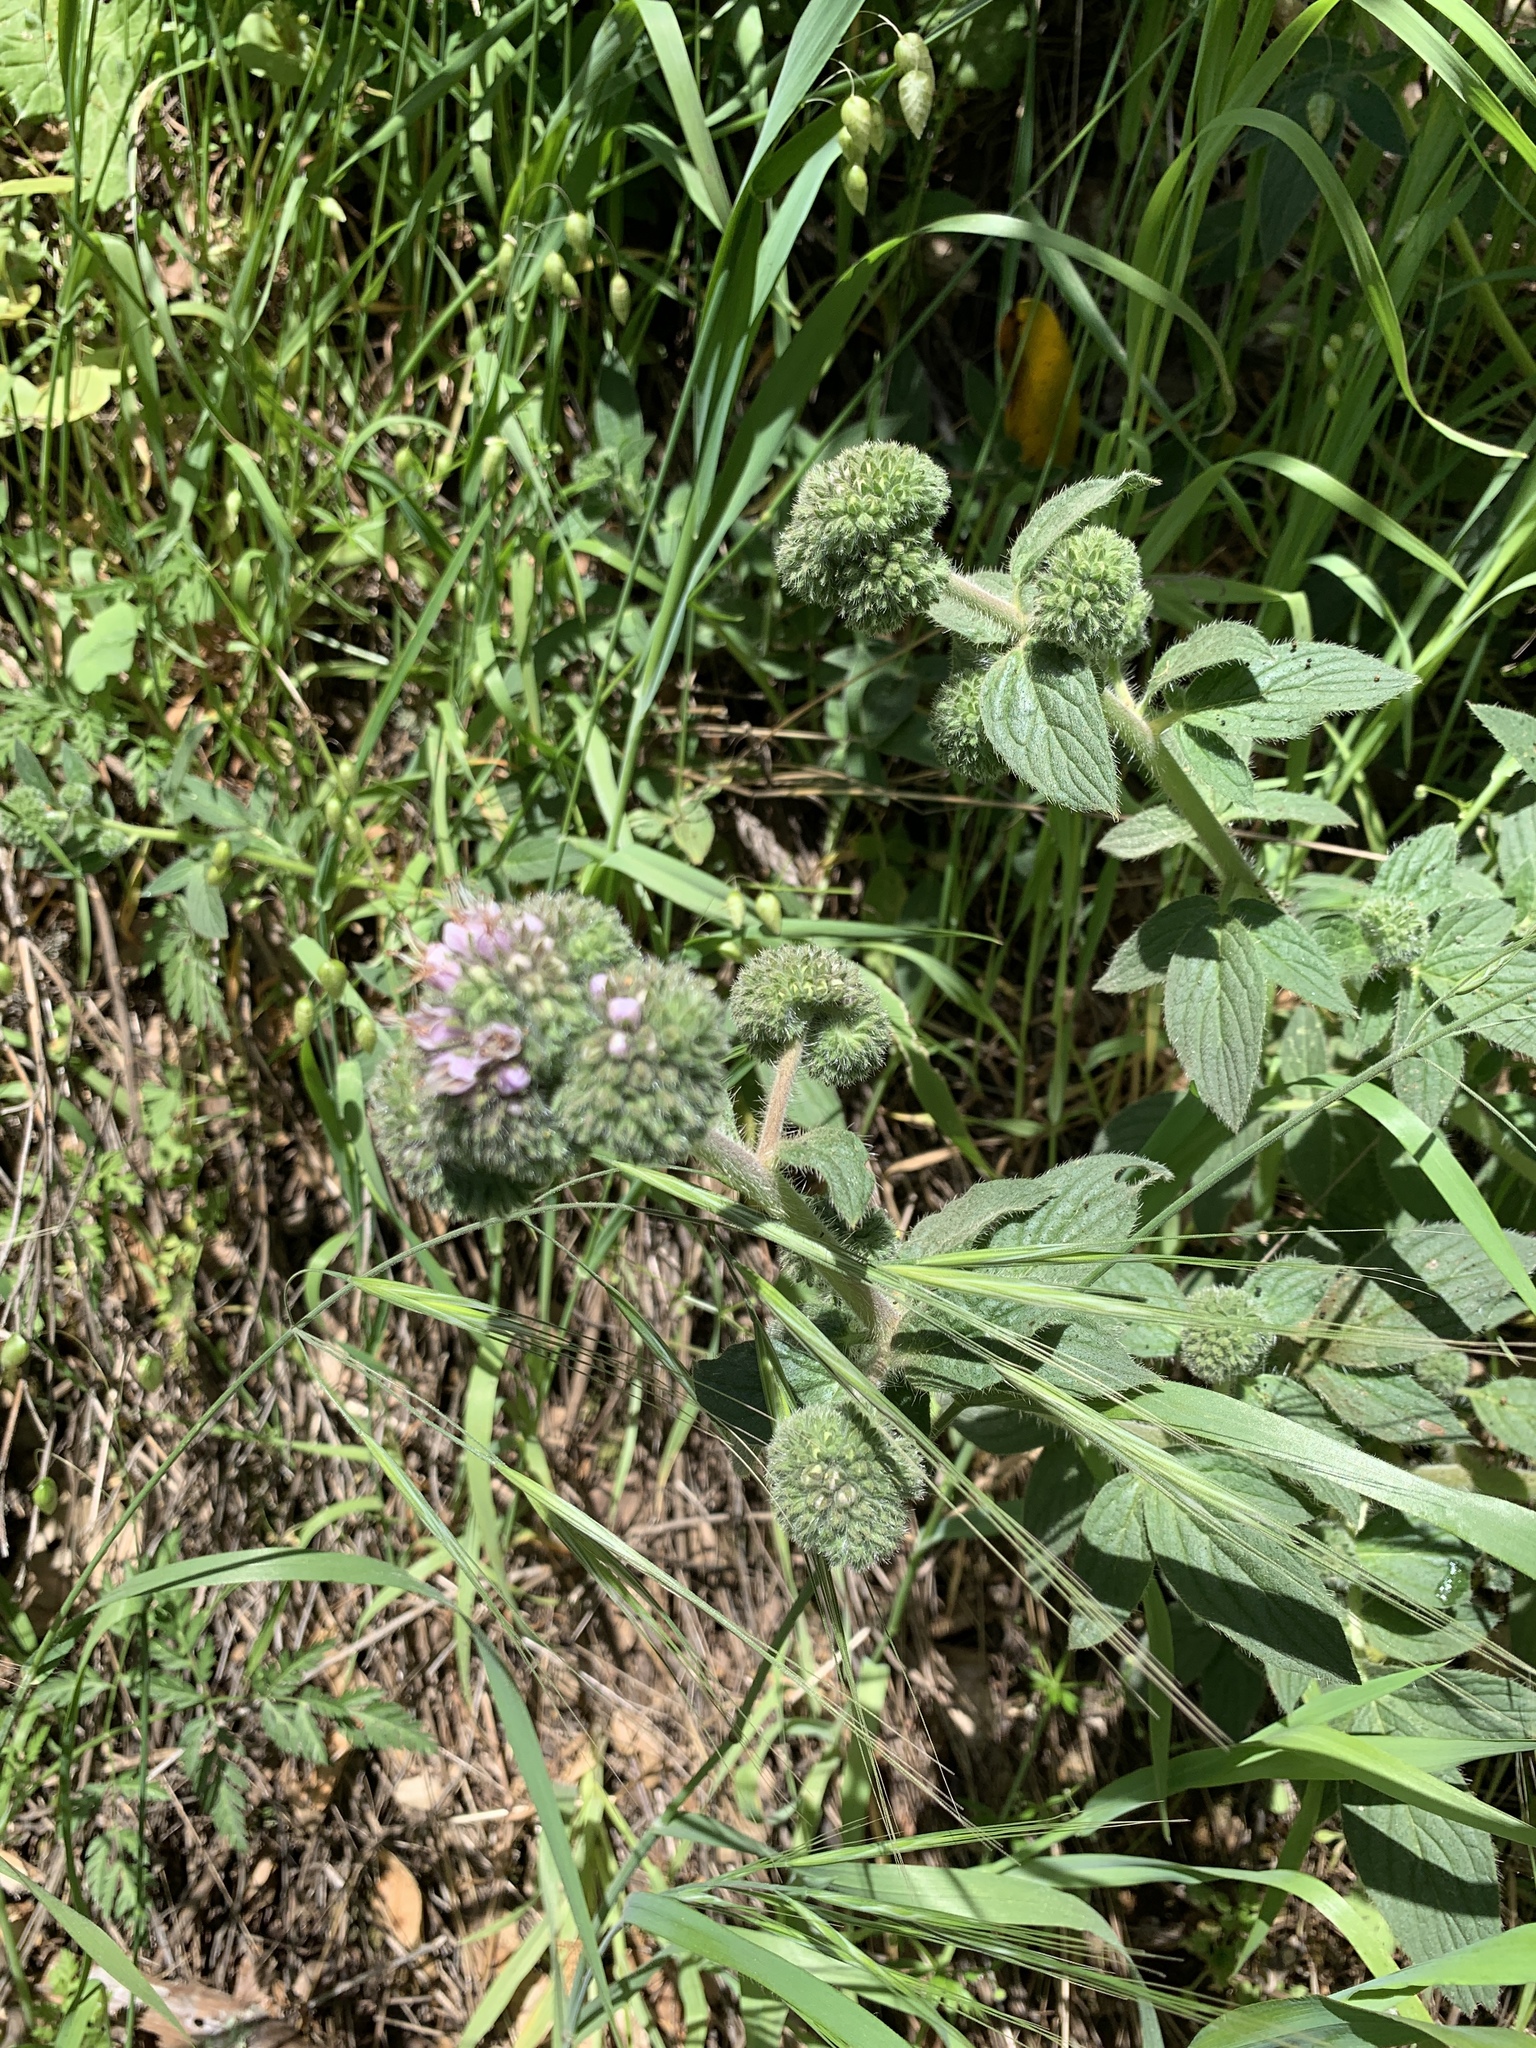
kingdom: Plantae
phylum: Tracheophyta
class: Magnoliopsida
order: Boraginales
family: Hydrophyllaceae
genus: Phacelia
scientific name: Phacelia californica
